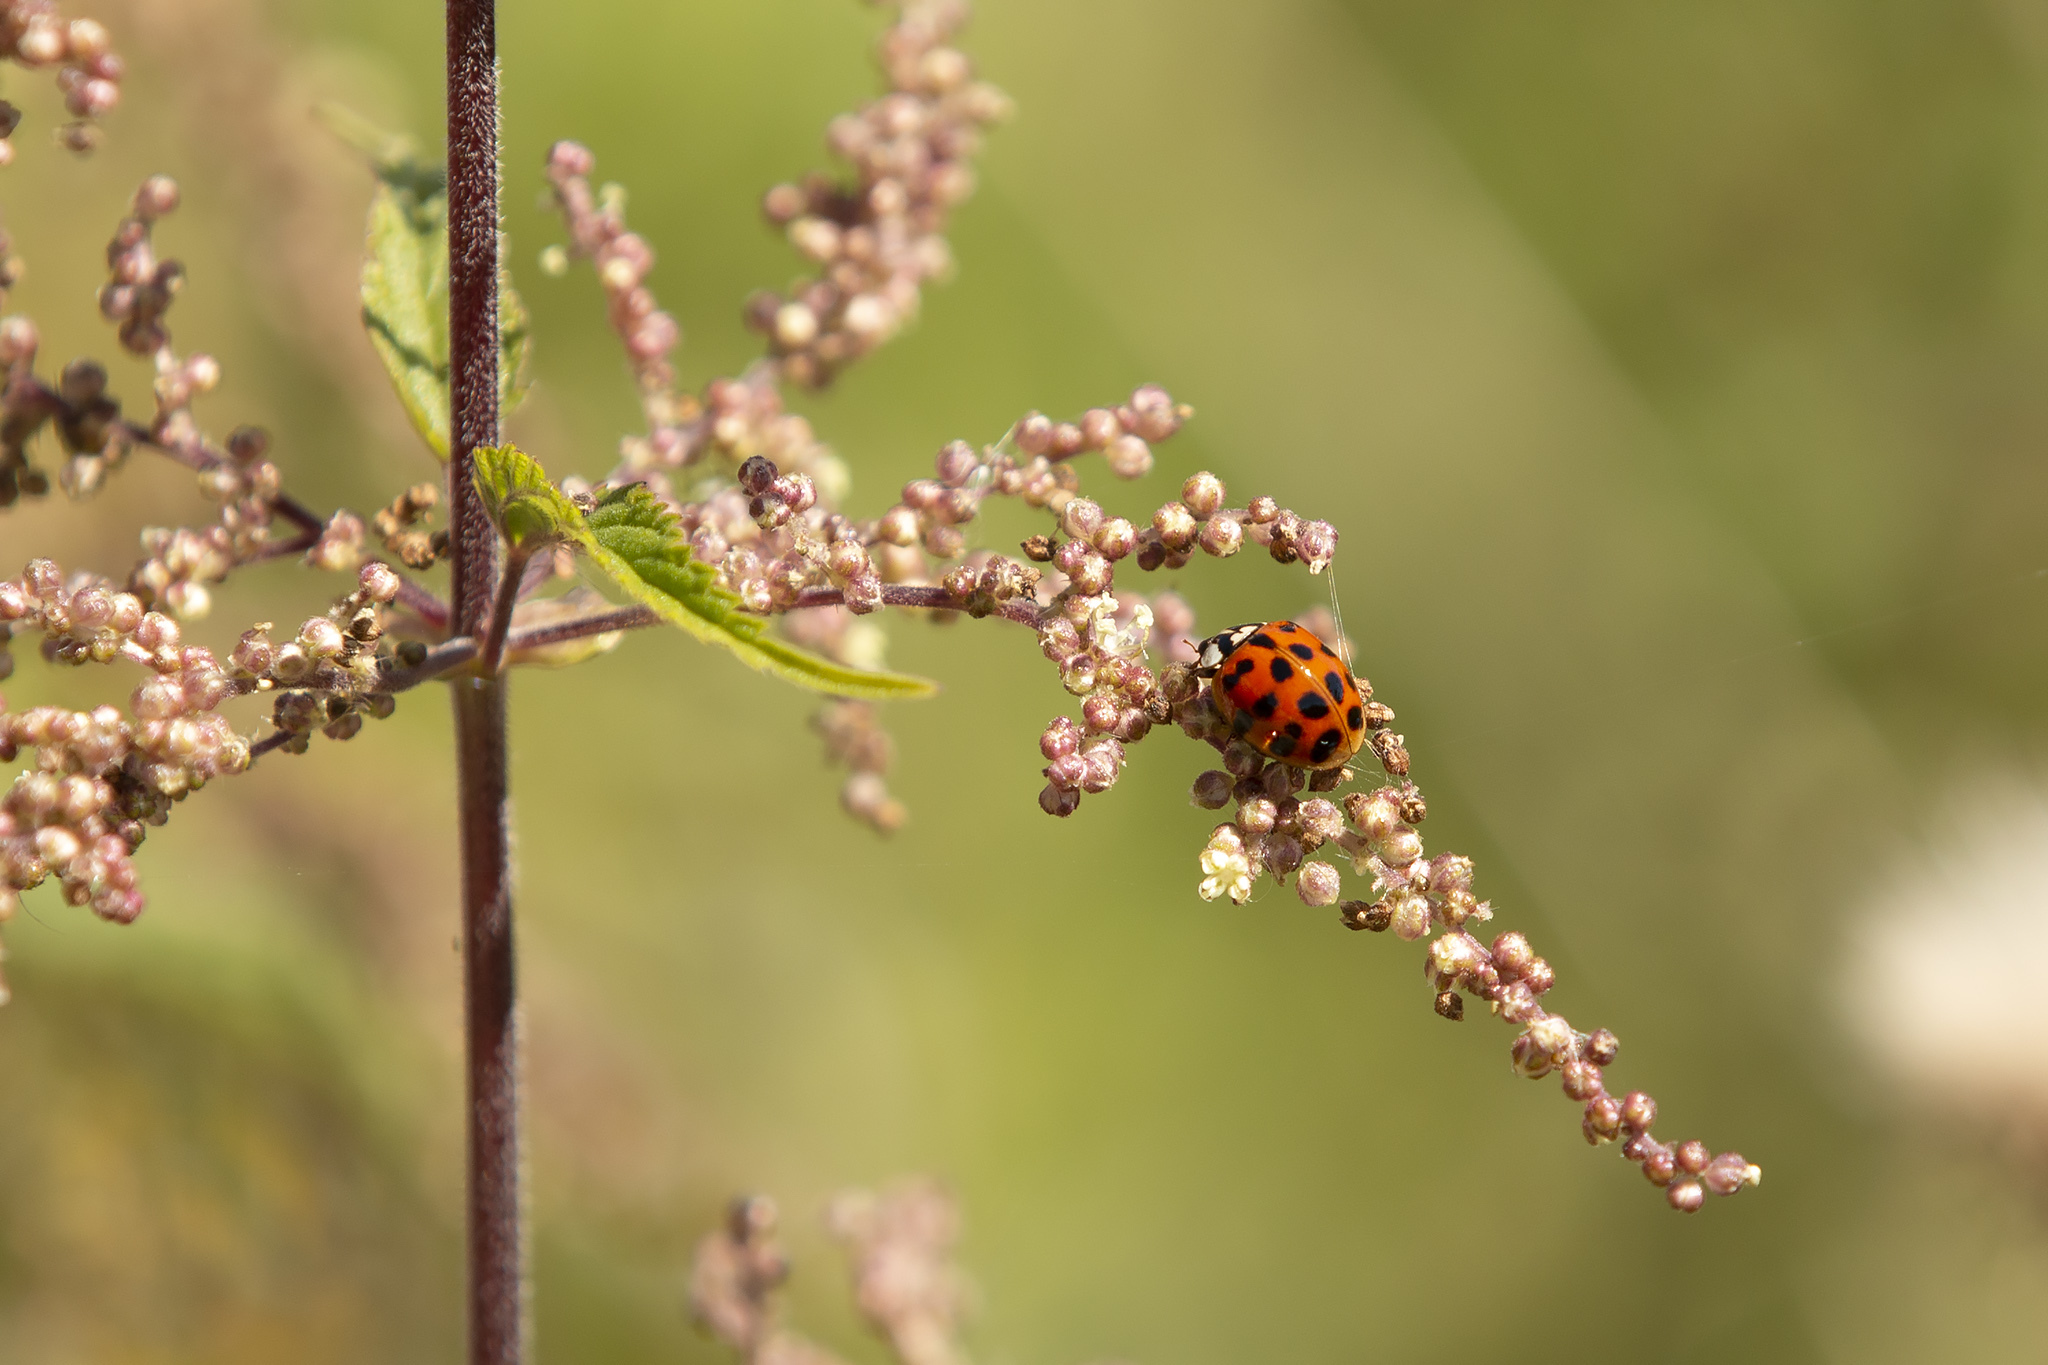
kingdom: Animalia
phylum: Arthropoda
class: Insecta
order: Coleoptera
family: Coccinellidae
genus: Harmonia
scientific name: Harmonia axyridis
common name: Harlequin ladybird
